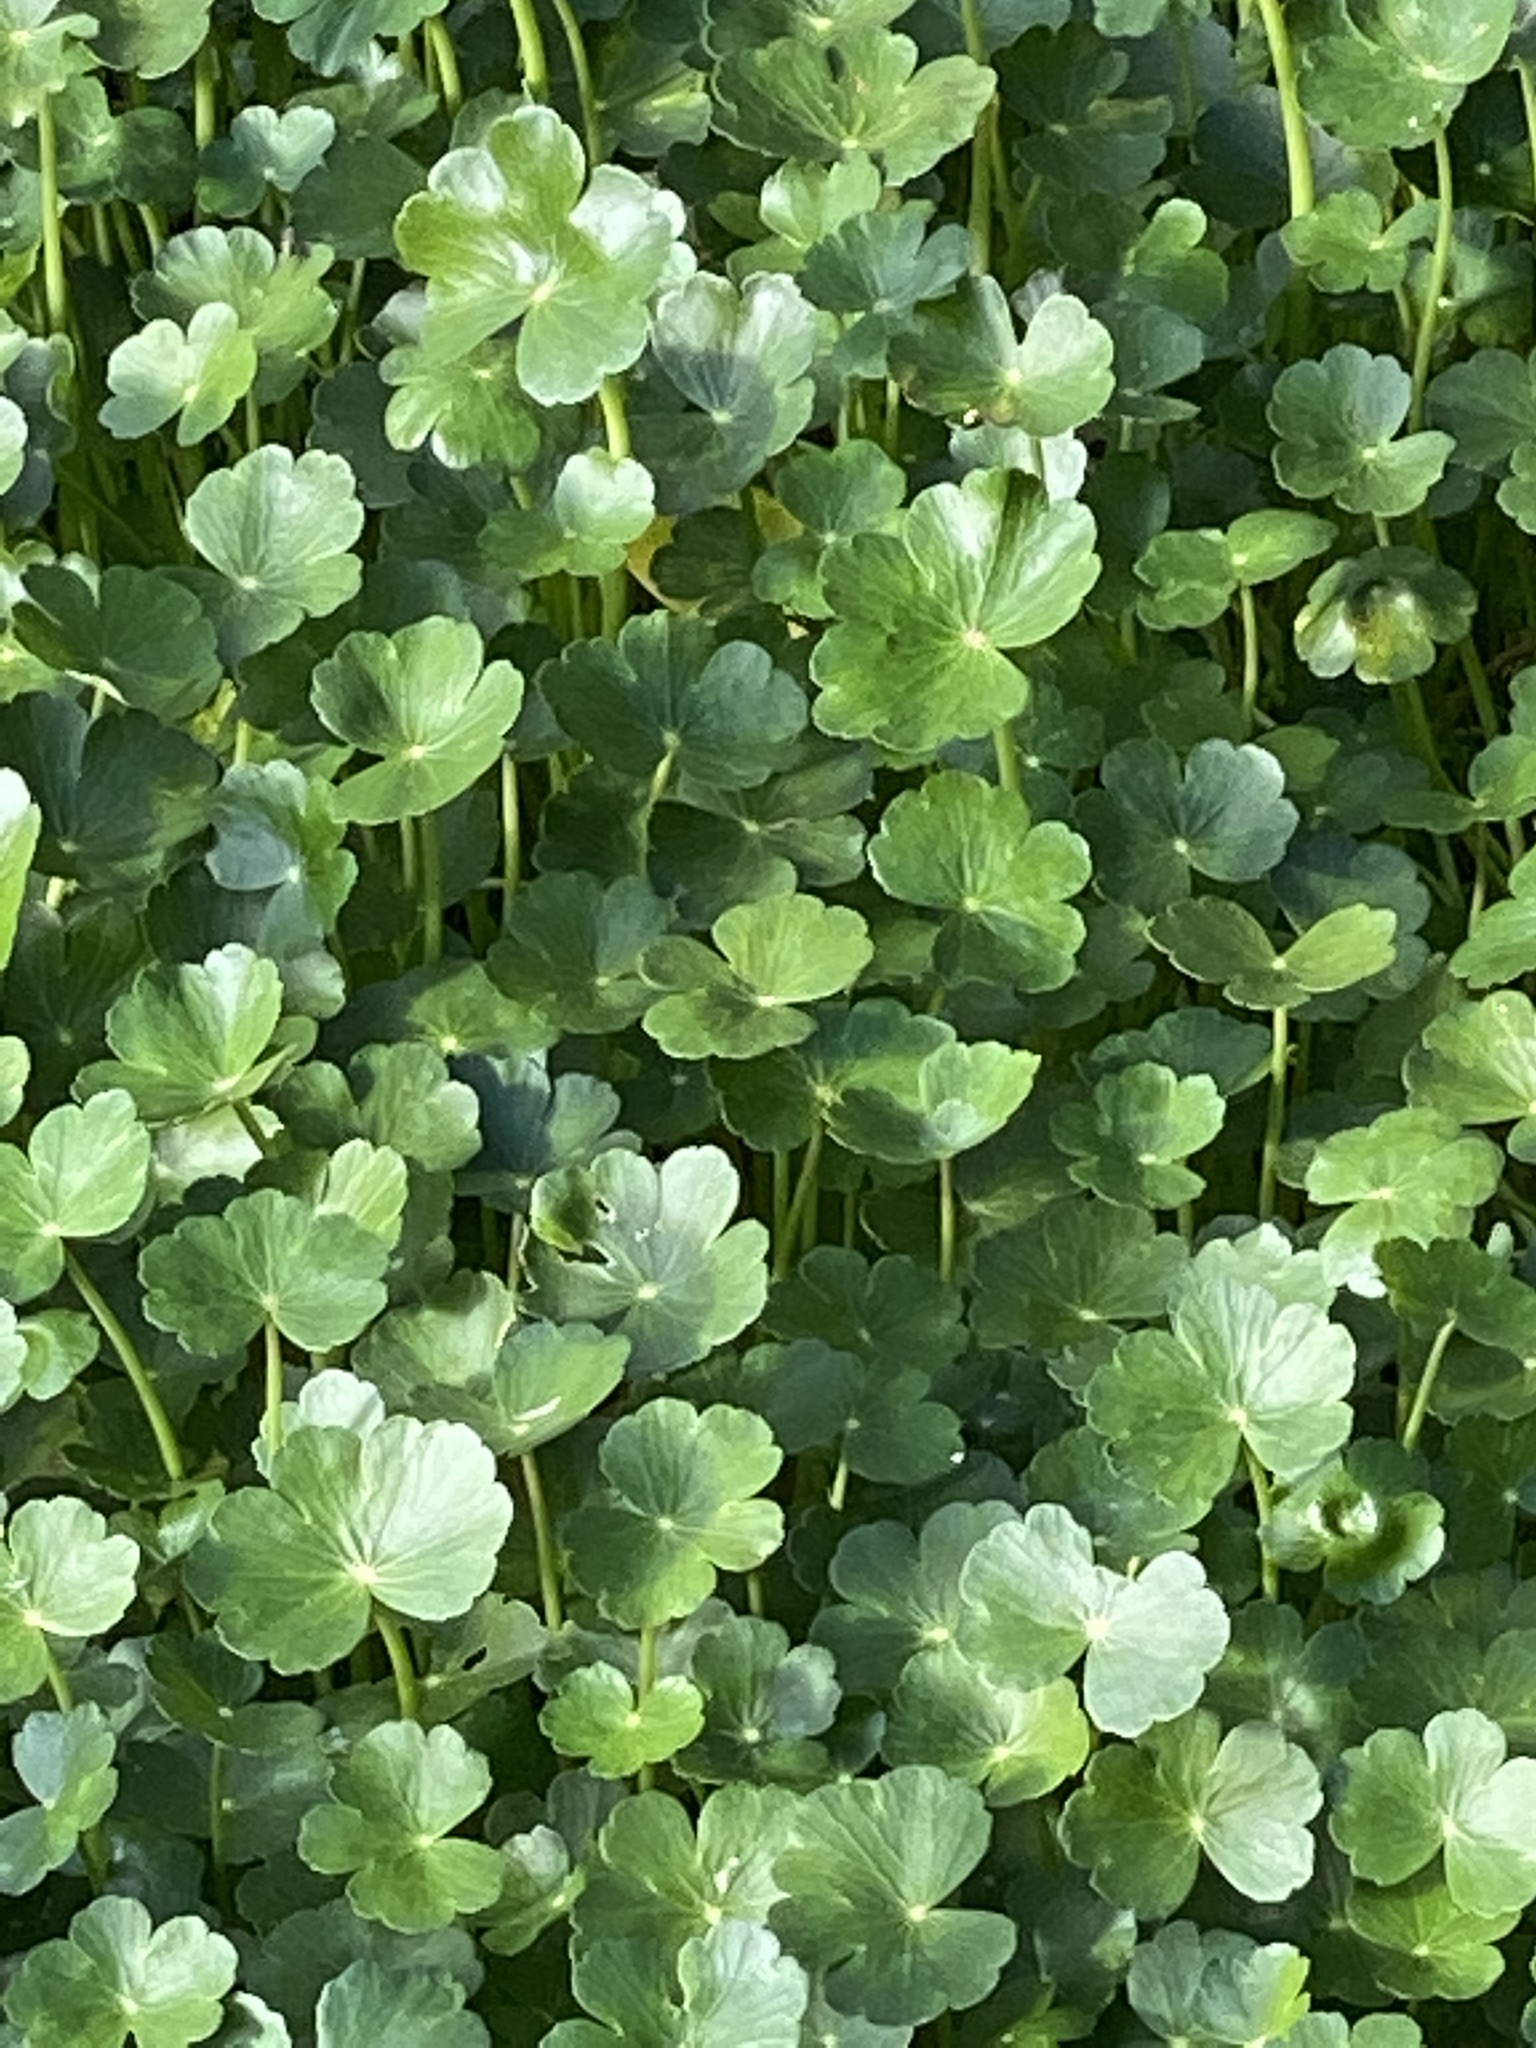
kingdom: Plantae
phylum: Tracheophyta
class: Magnoliopsida
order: Apiales
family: Araliaceae
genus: Hydrocotyle
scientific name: Hydrocotyle ranunculoides
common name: Floating pennywort
